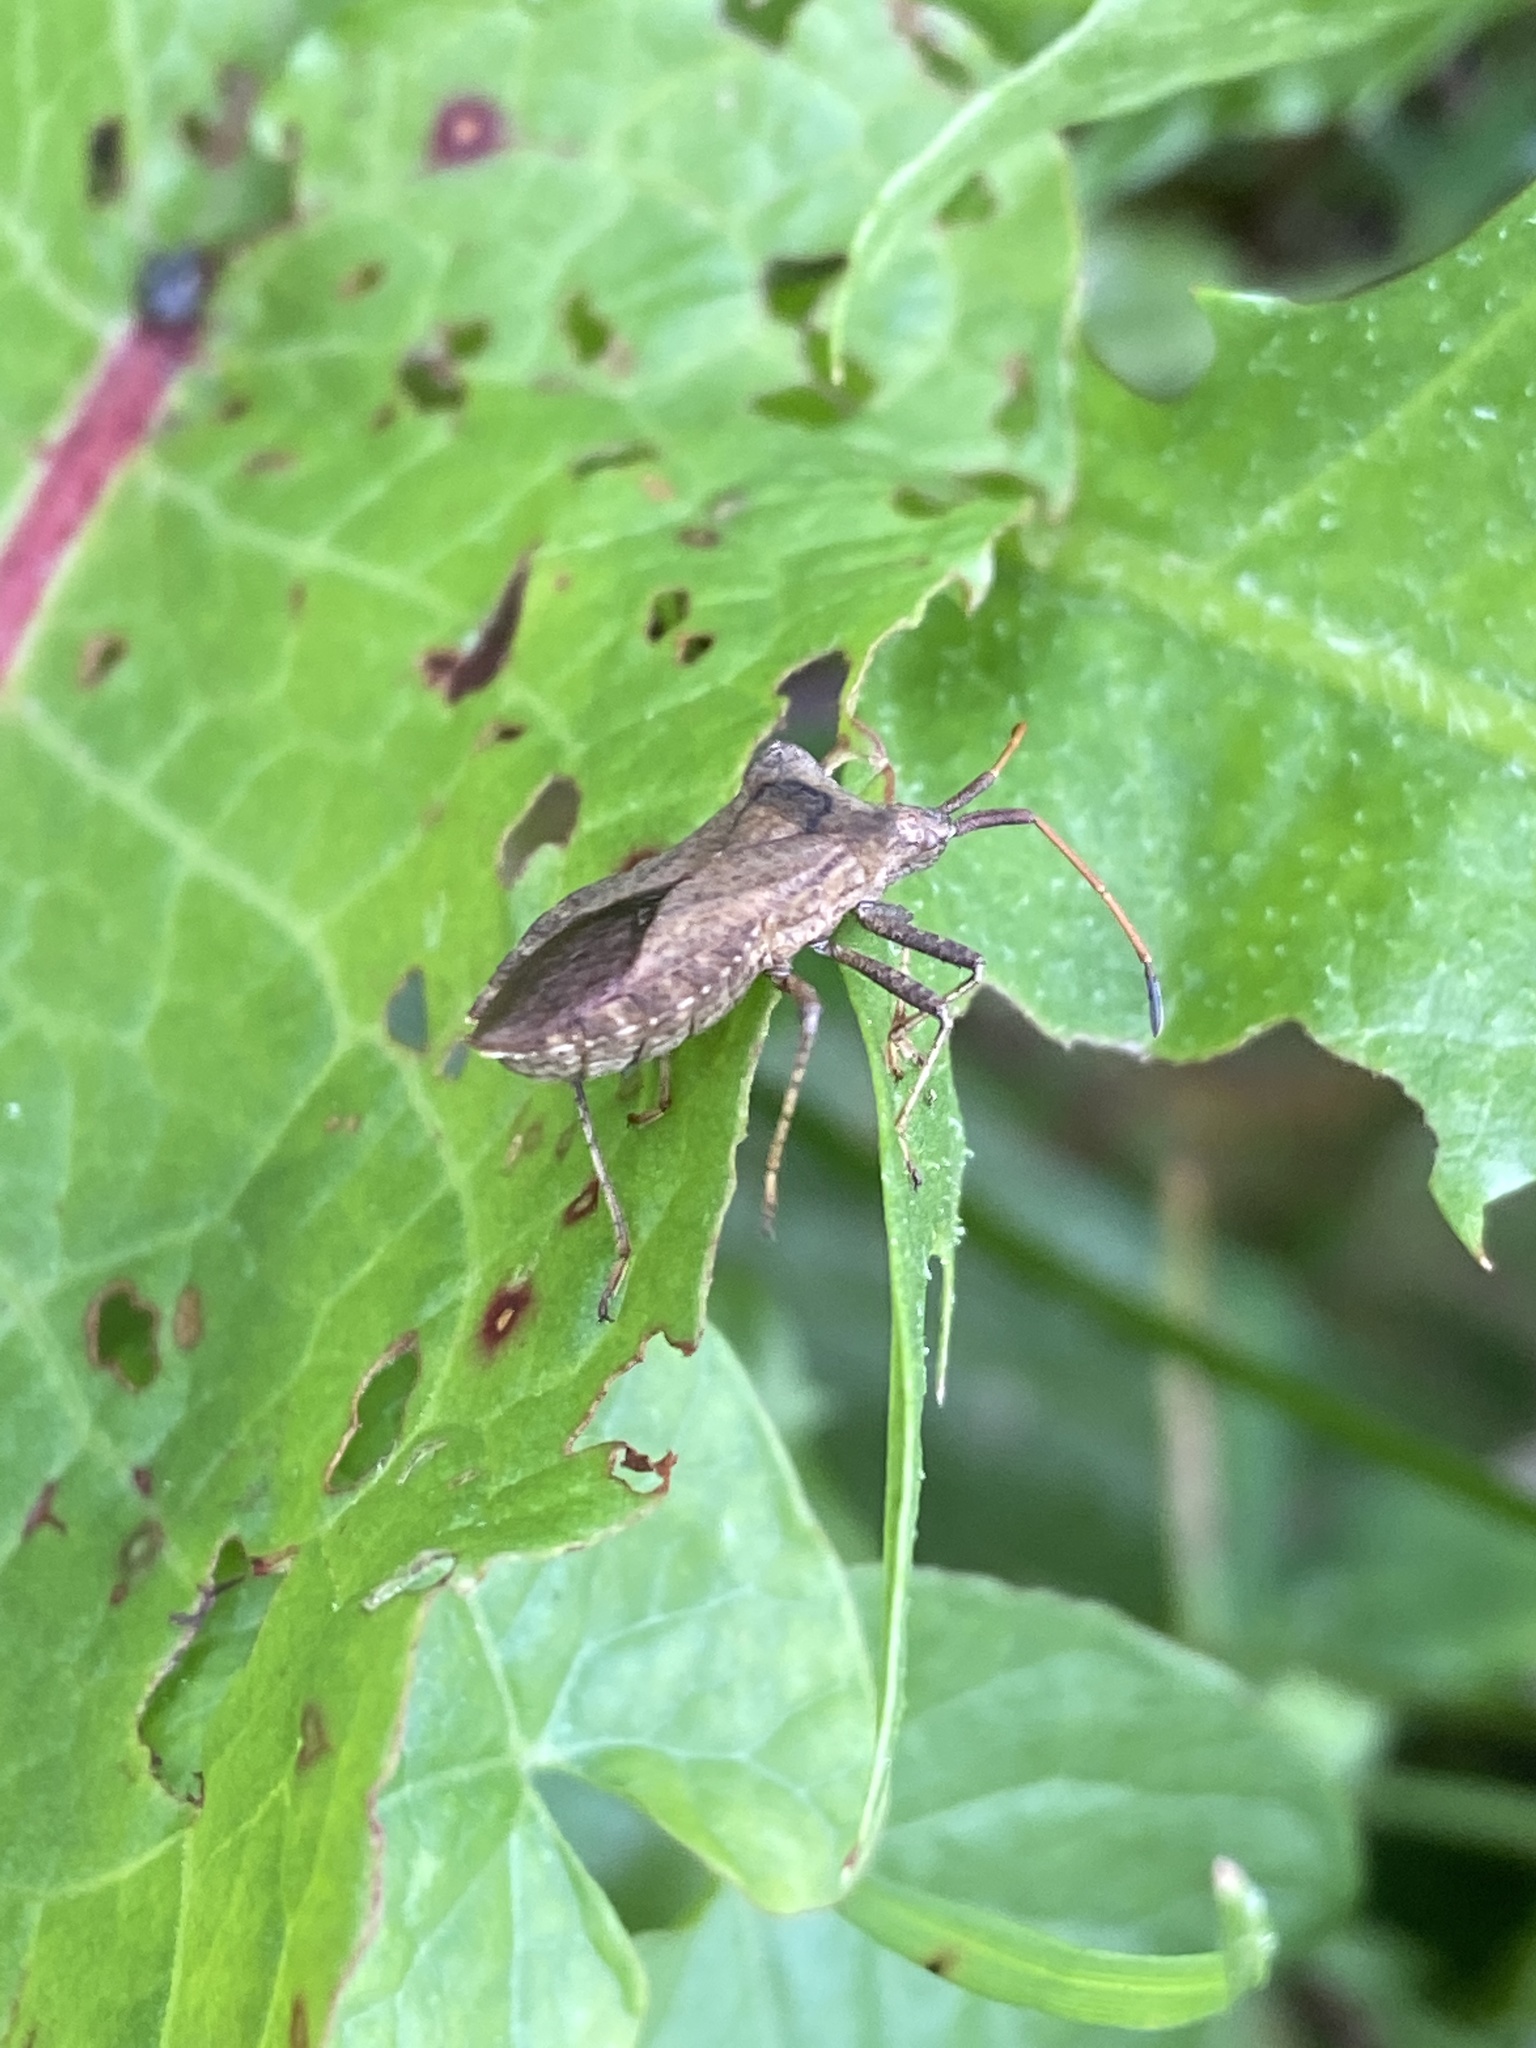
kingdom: Animalia
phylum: Arthropoda
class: Insecta
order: Hemiptera
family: Coreidae
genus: Coreus
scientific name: Coreus marginatus
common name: Dock bug
